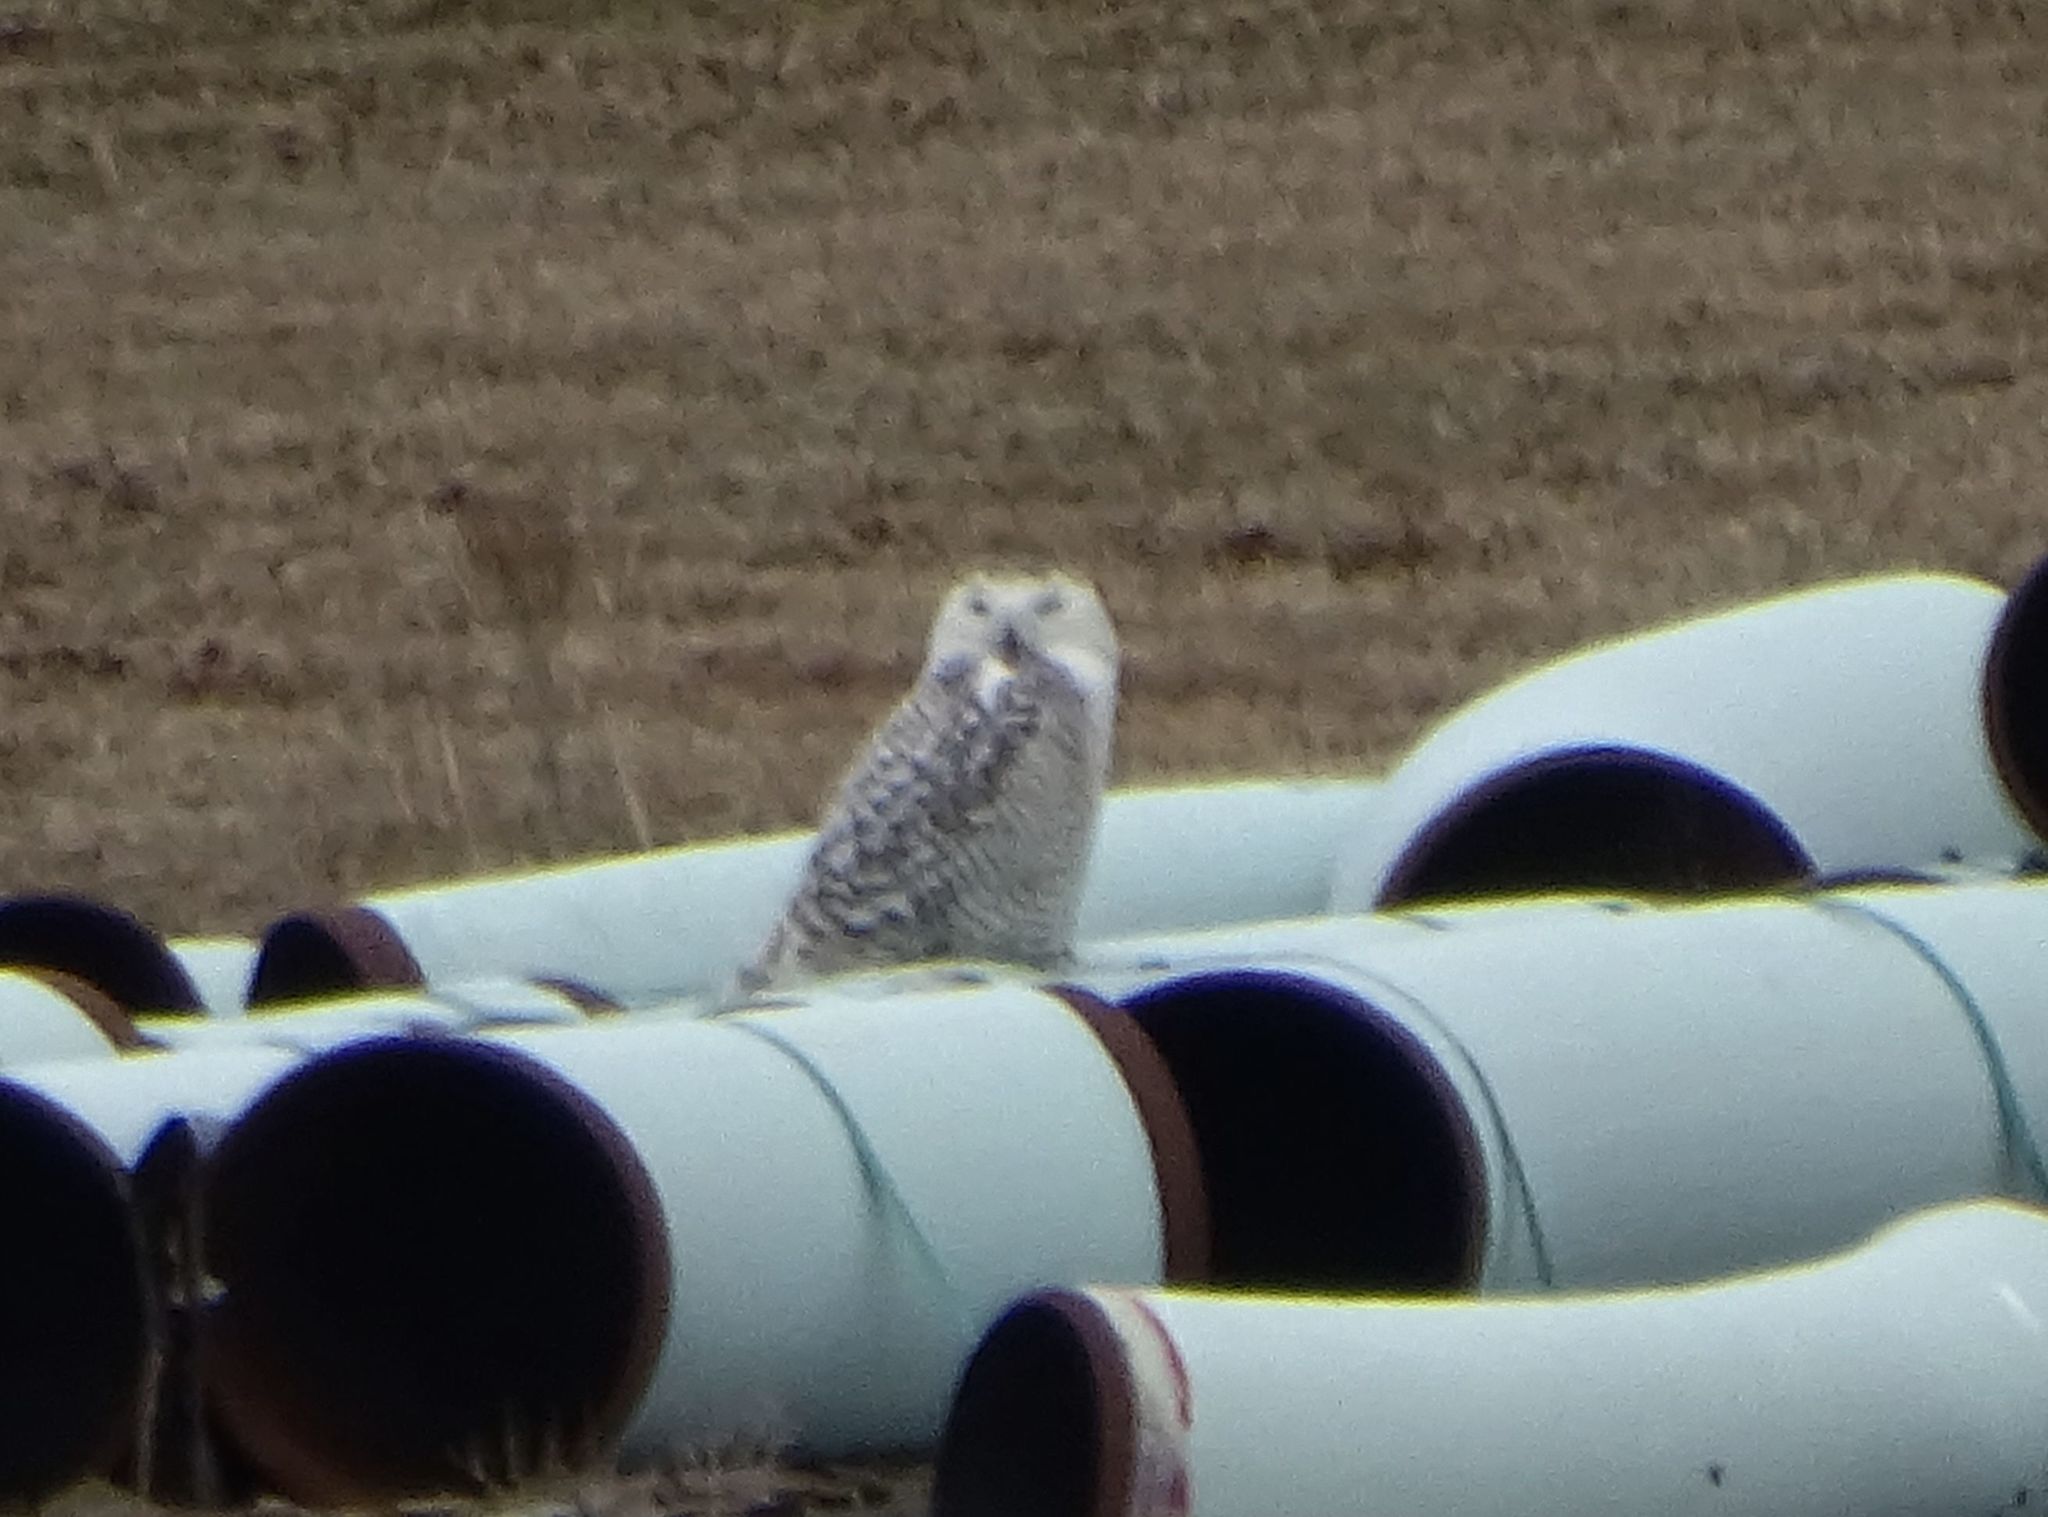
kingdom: Animalia
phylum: Chordata
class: Aves
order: Strigiformes
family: Strigidae
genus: Bubo
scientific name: Bubo scandiacus
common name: Snowy owl
